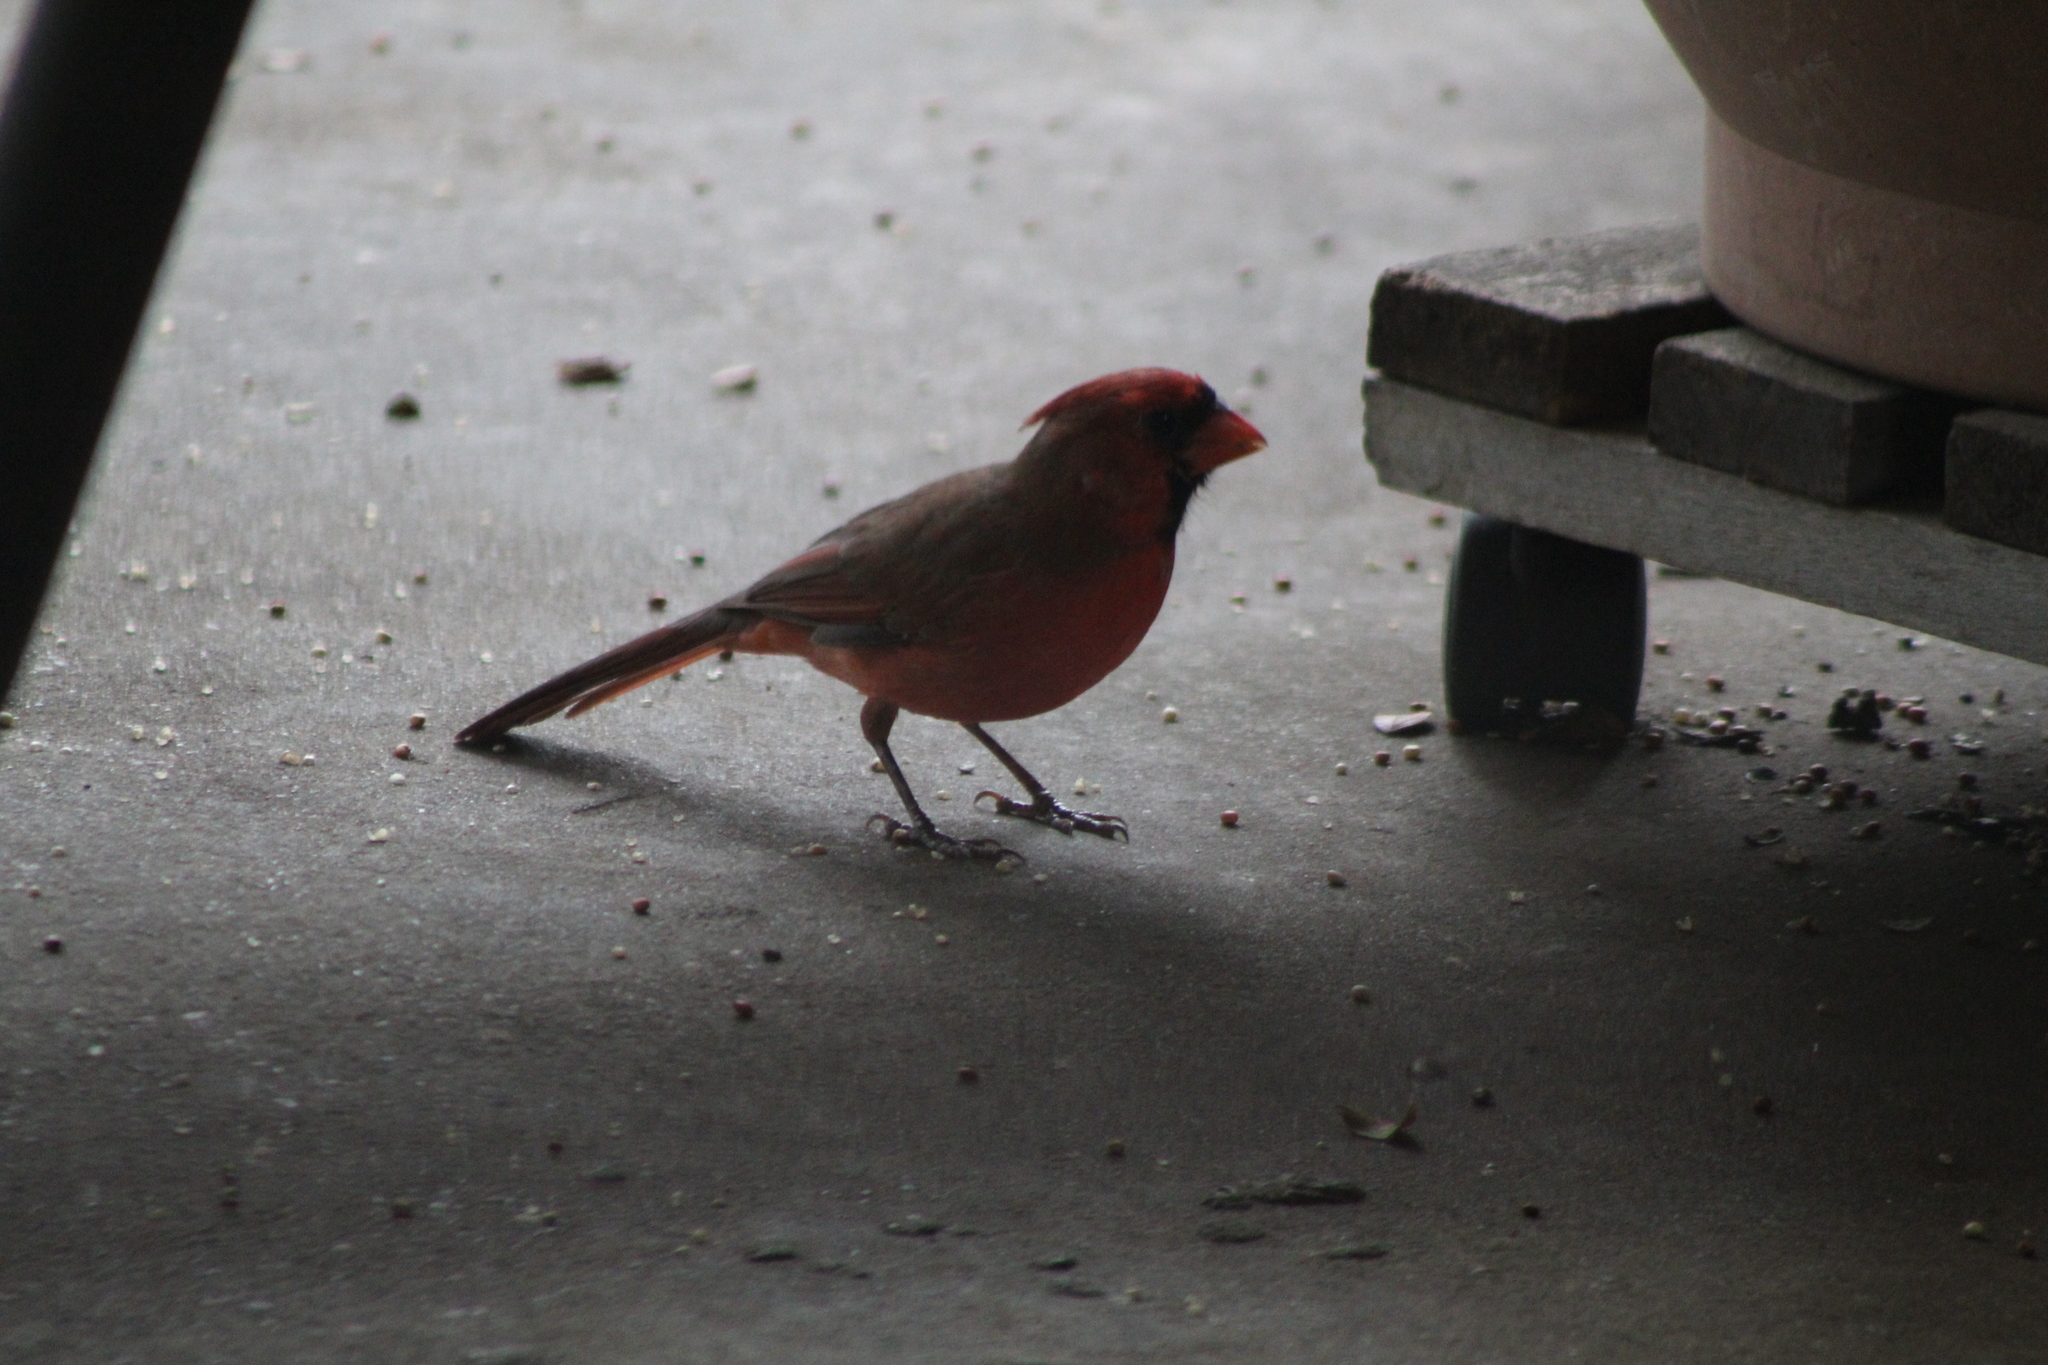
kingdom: Animalia
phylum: Chordata
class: Aves
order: Passeriformes
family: Cardinalidae
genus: Cardinalis
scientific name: Cardinalis cardinalis
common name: Northern cardinal
